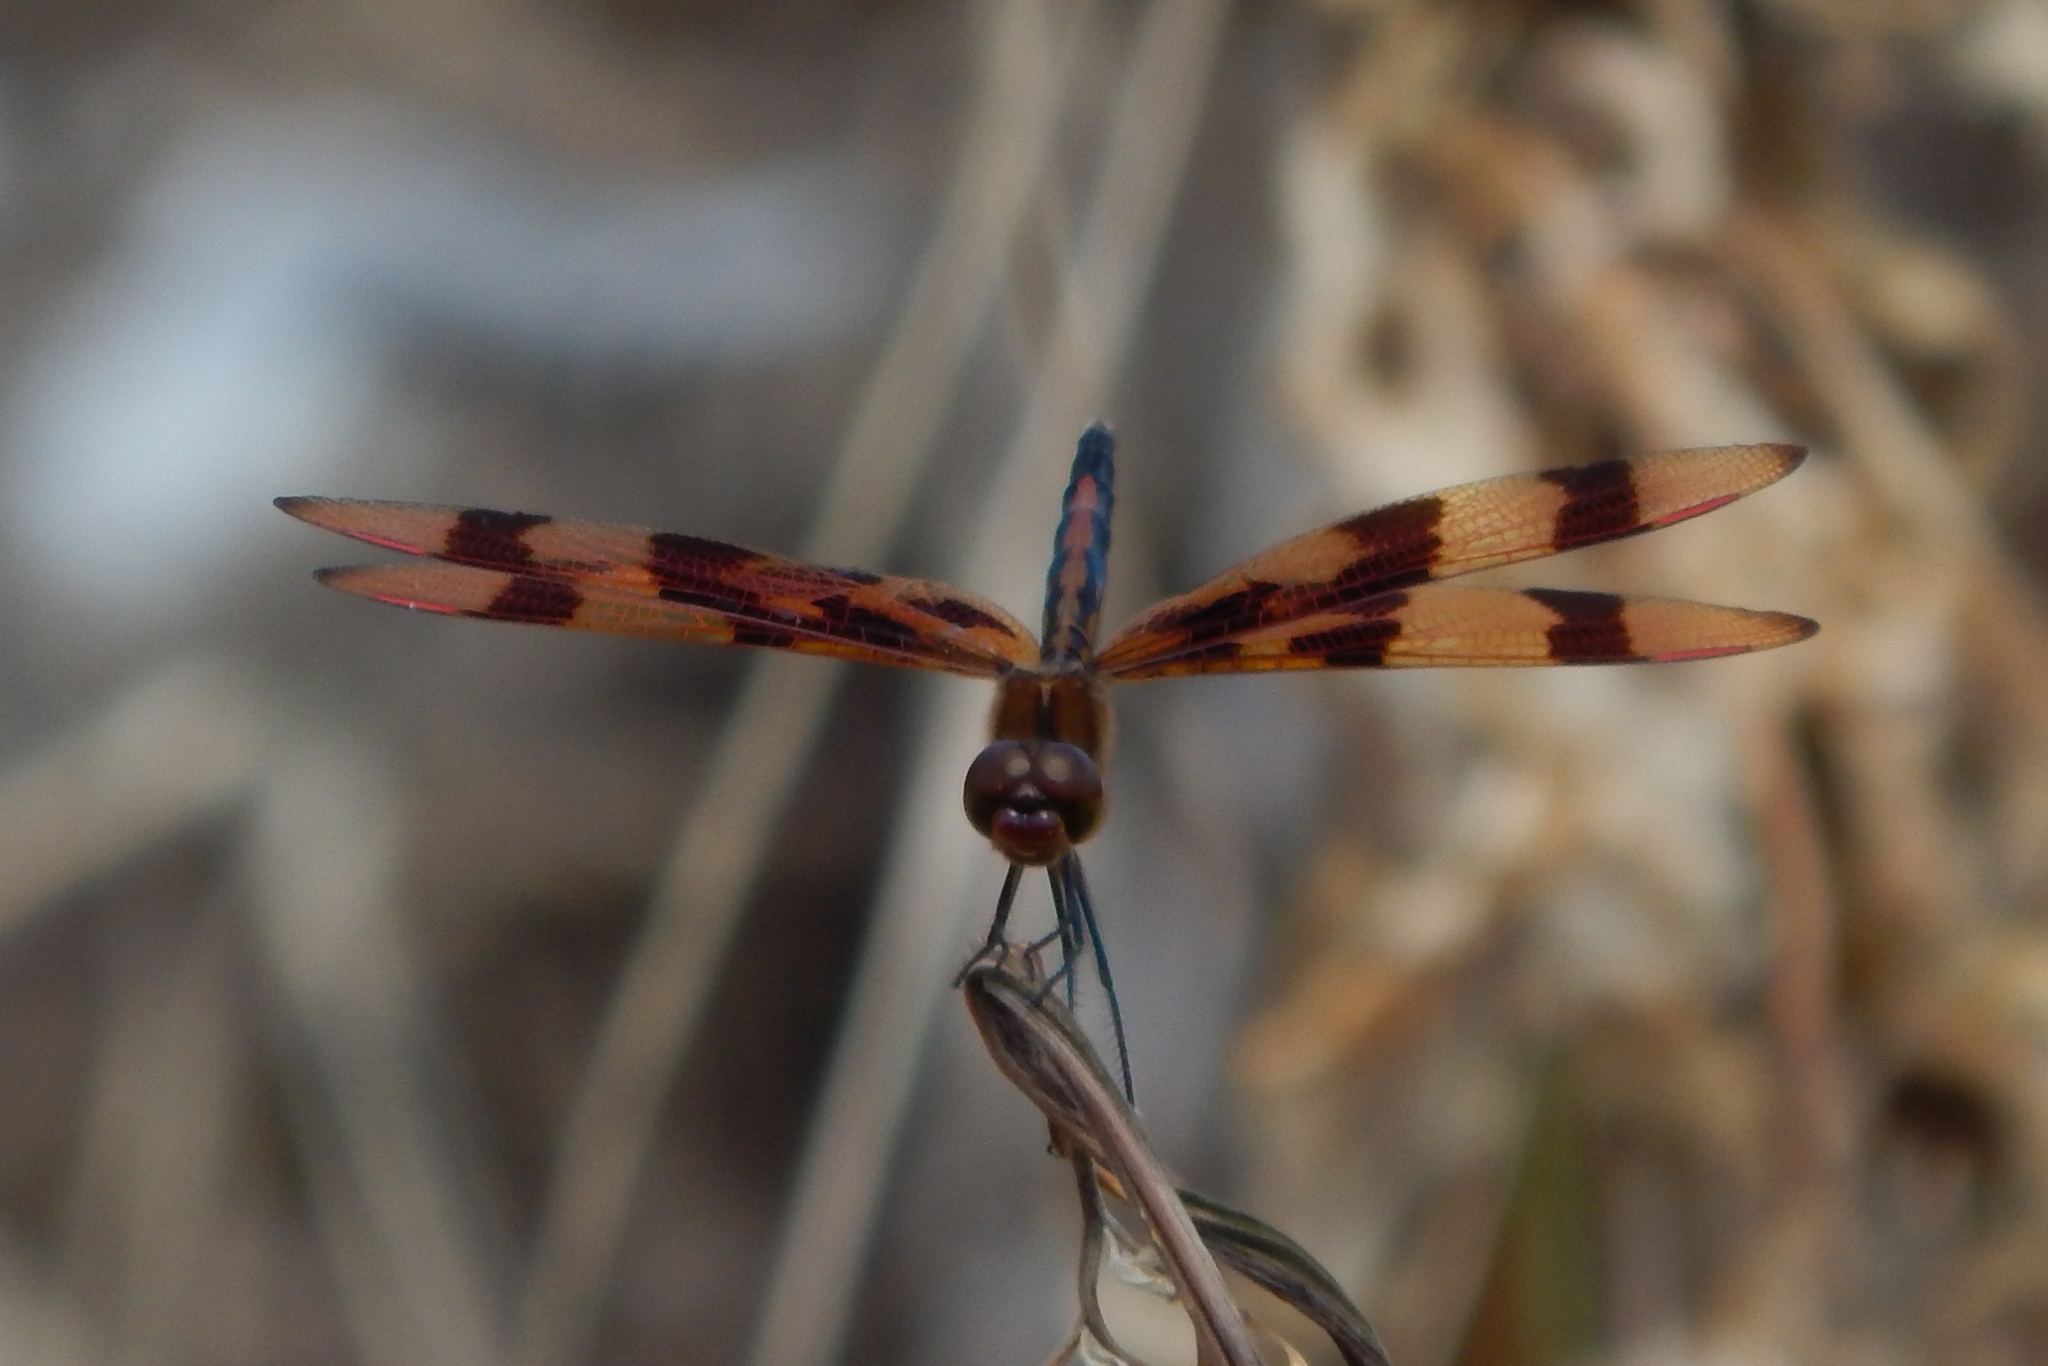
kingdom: Animalia
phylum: Arthropoda
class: Insecta
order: Odonata
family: Libellulidae
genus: Celithemis
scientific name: Celithemis eponina
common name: Halloween pennant
